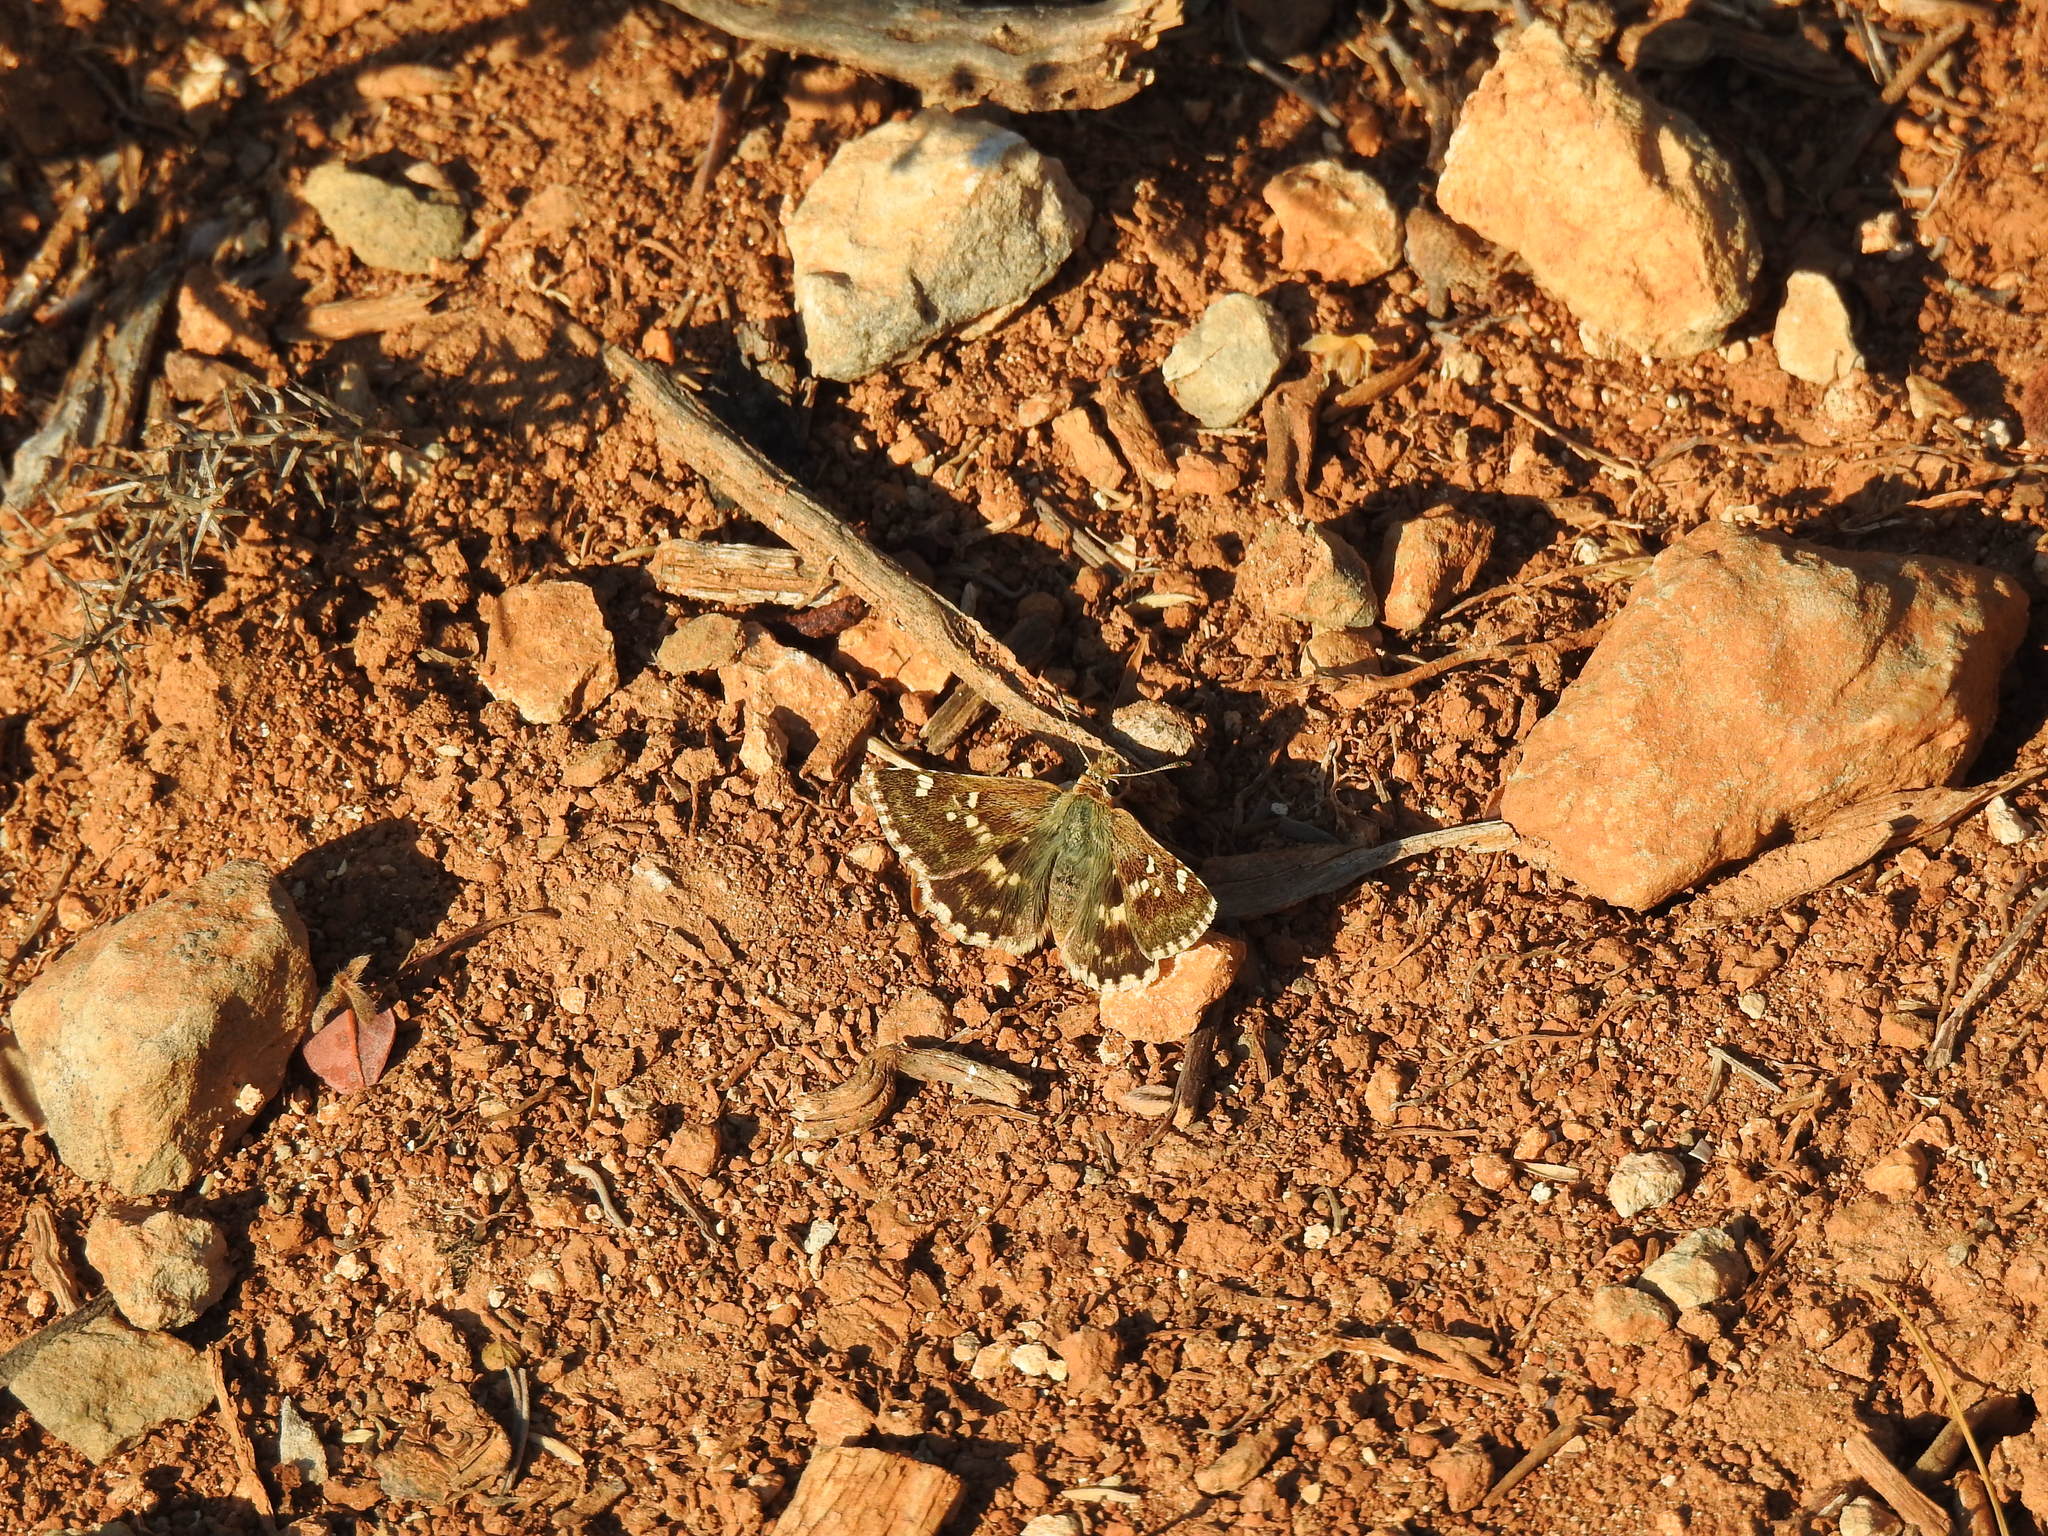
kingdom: Animalia
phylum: Arthropoda
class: Insecta
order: Lepidoptera
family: Hesperiidae
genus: Syrichtus
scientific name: Syrichtus Muschampia proto
